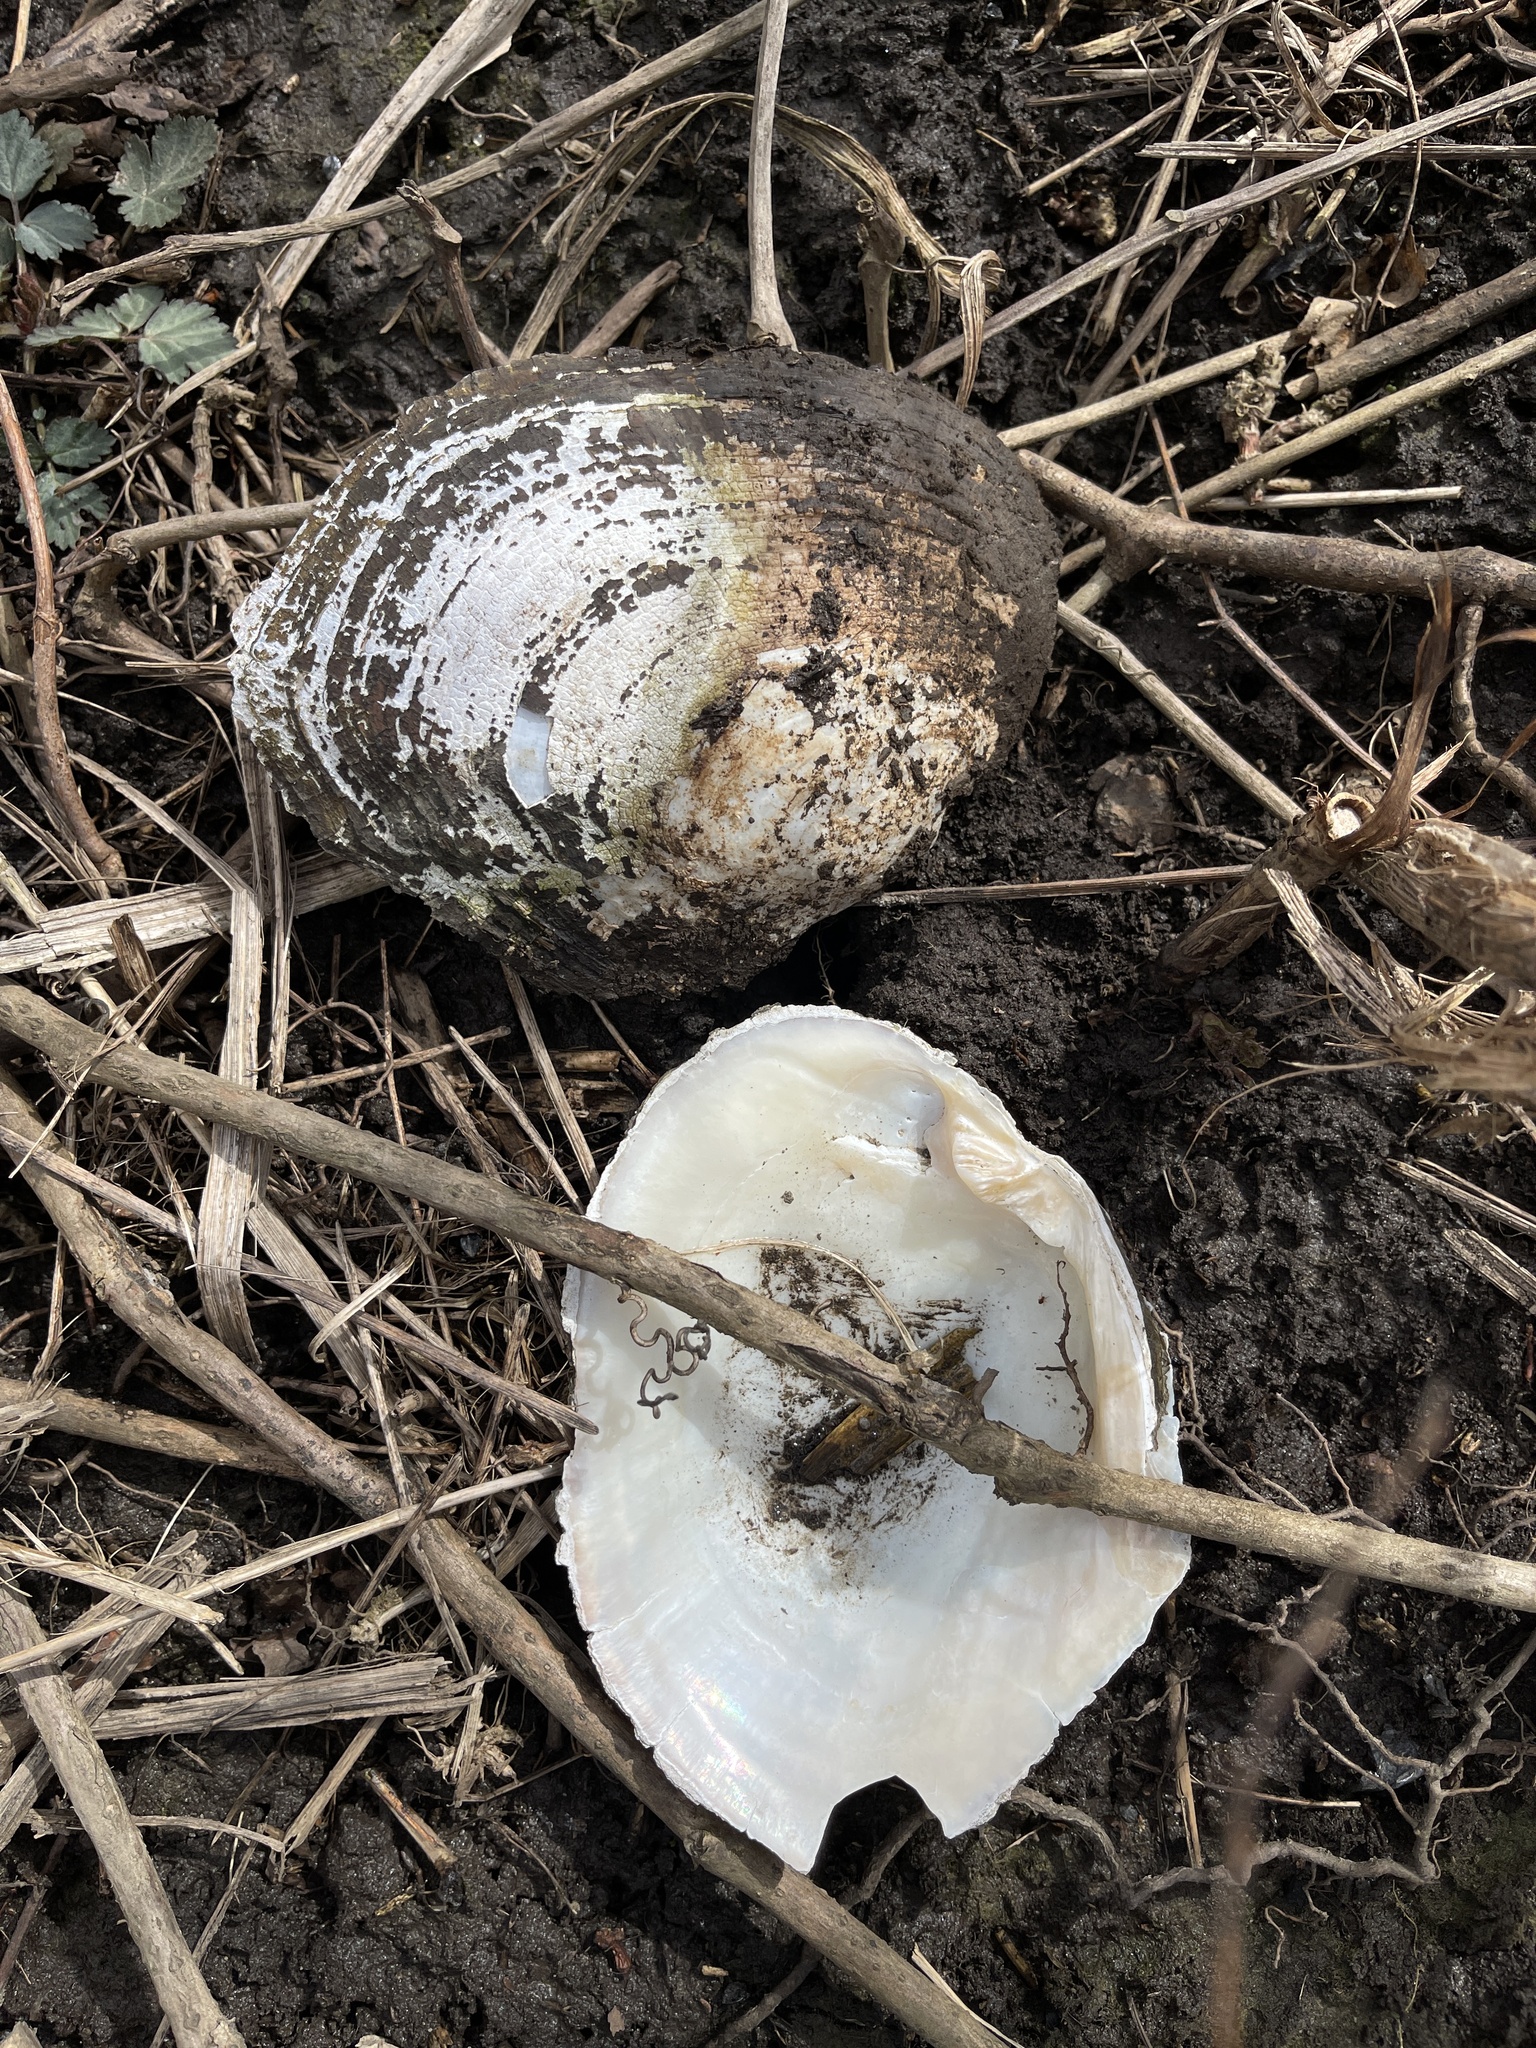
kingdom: Animalia
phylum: Mollusca
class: Bivalvia
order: Unionida
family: Unionidae
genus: Lasmigona
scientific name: Lasmigona complanata
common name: White heelsplitter
